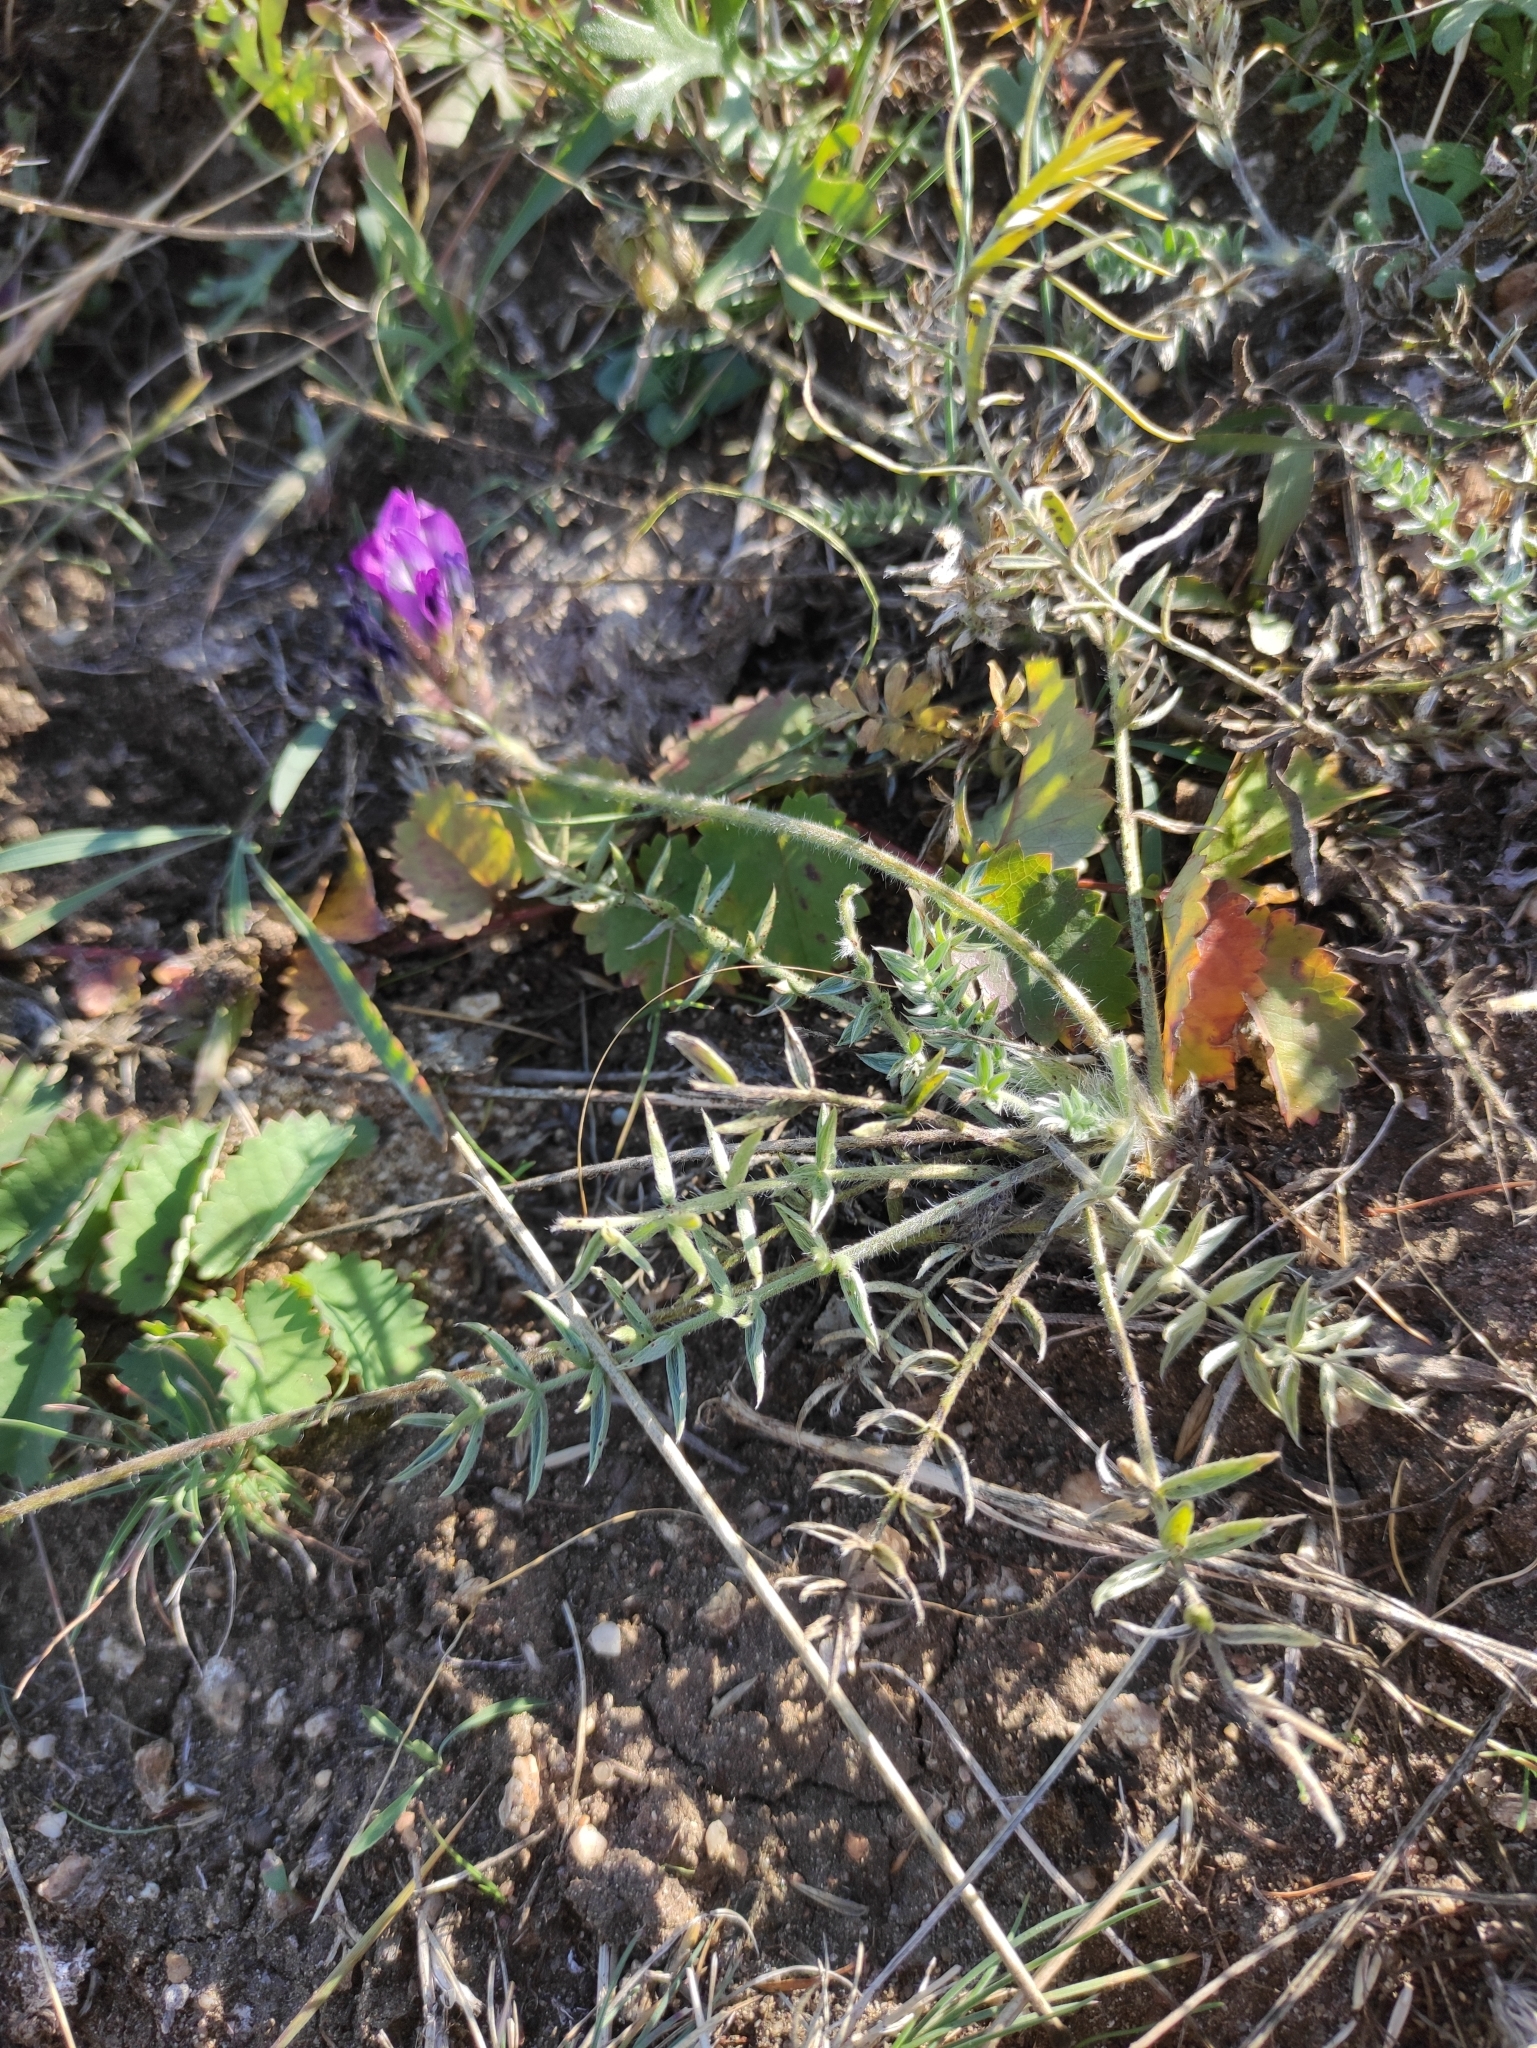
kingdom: Plantae
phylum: Tracheophyta
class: Magnoliopsida
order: Fabales
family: Fabaceae
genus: Oxytropis
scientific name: Oxytropis turczaninovii
